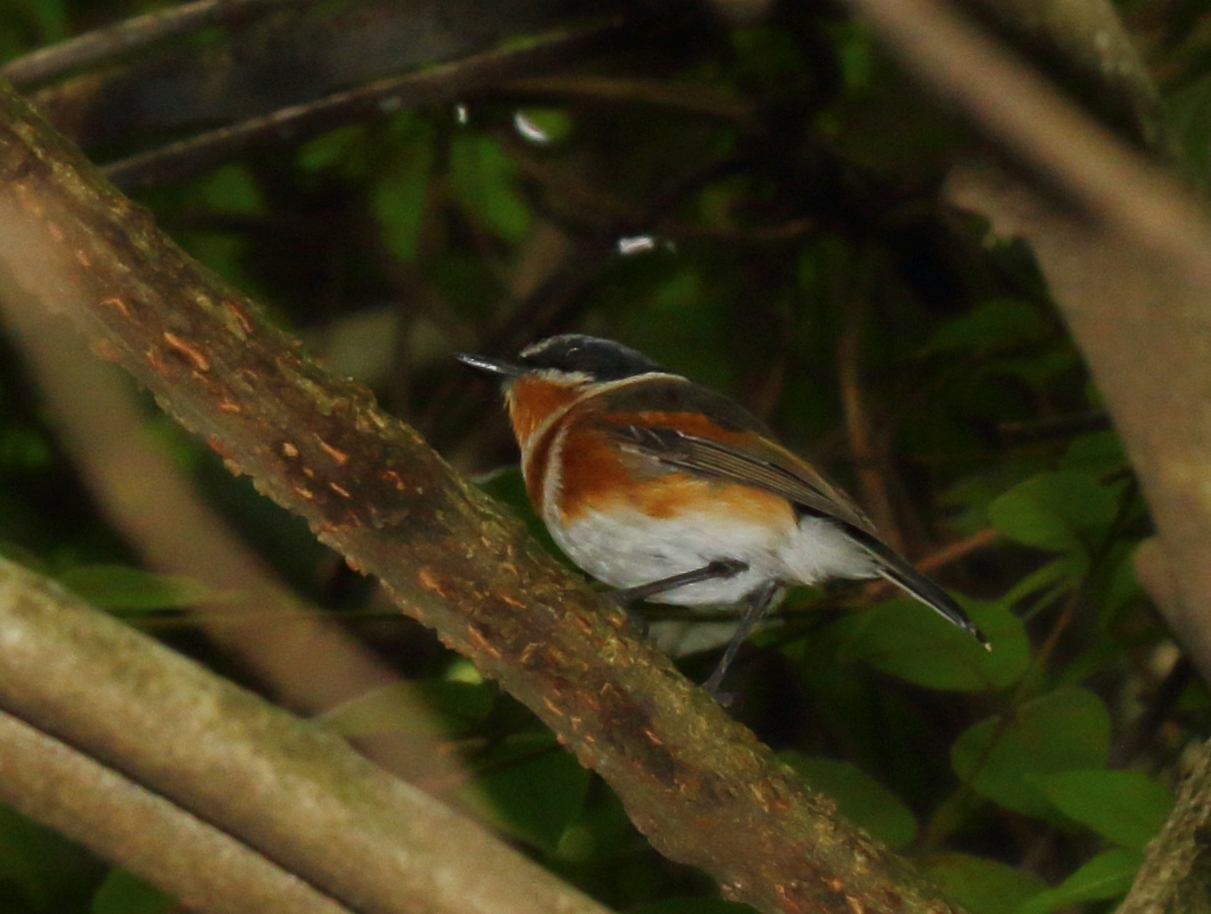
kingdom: Animalia
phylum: Chordata
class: Aves
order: Passeriformes
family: Platysteiridae
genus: Batis
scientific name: Batis capensis
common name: Cape batis
